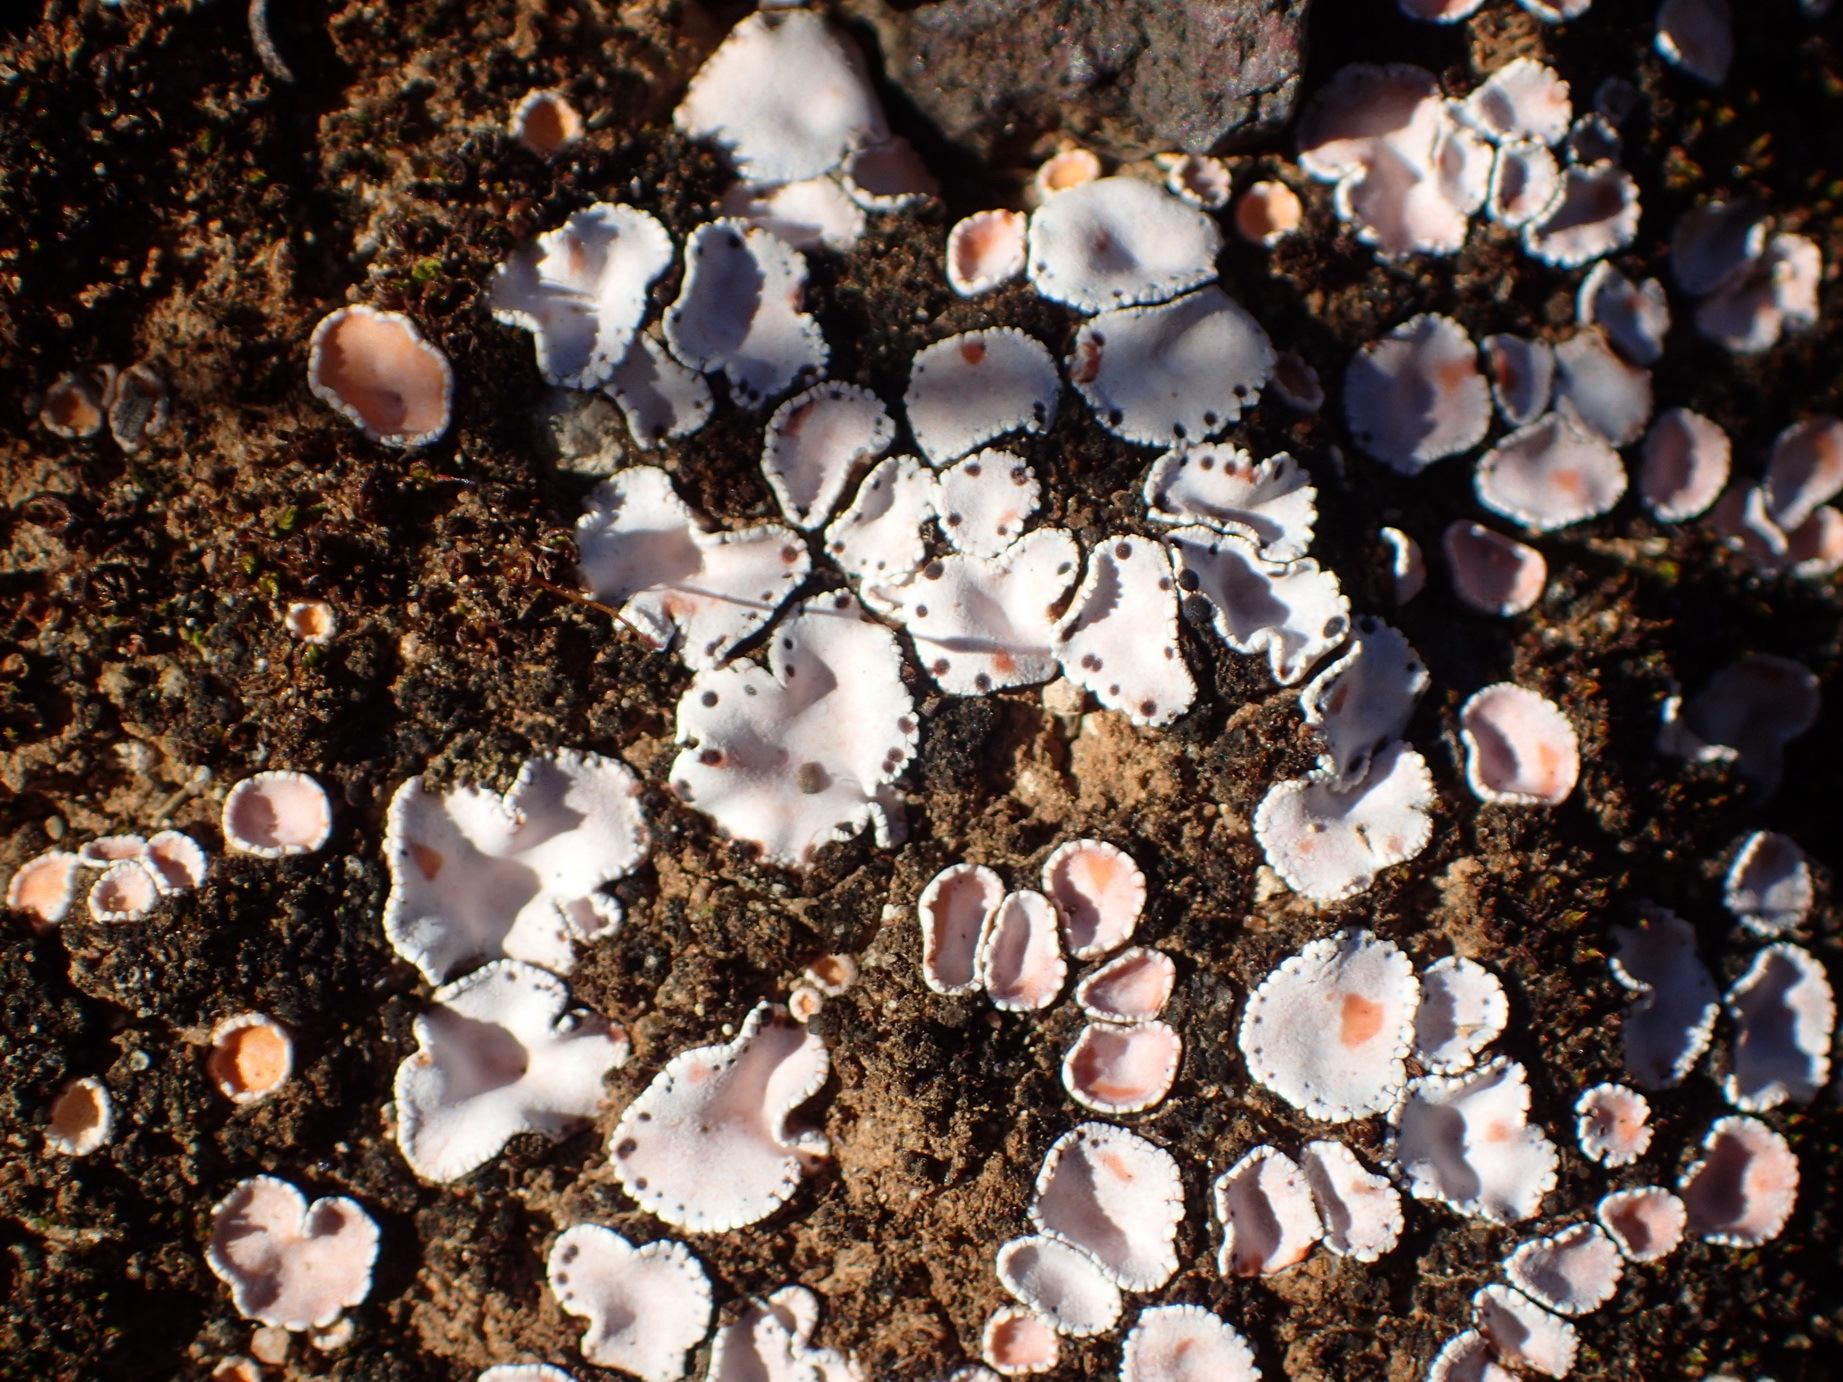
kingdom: Fungi
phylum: Ascomycota
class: Lecanoromycetes
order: Lecanorales
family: Psoraceae
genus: Psora
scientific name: Psora crenata
